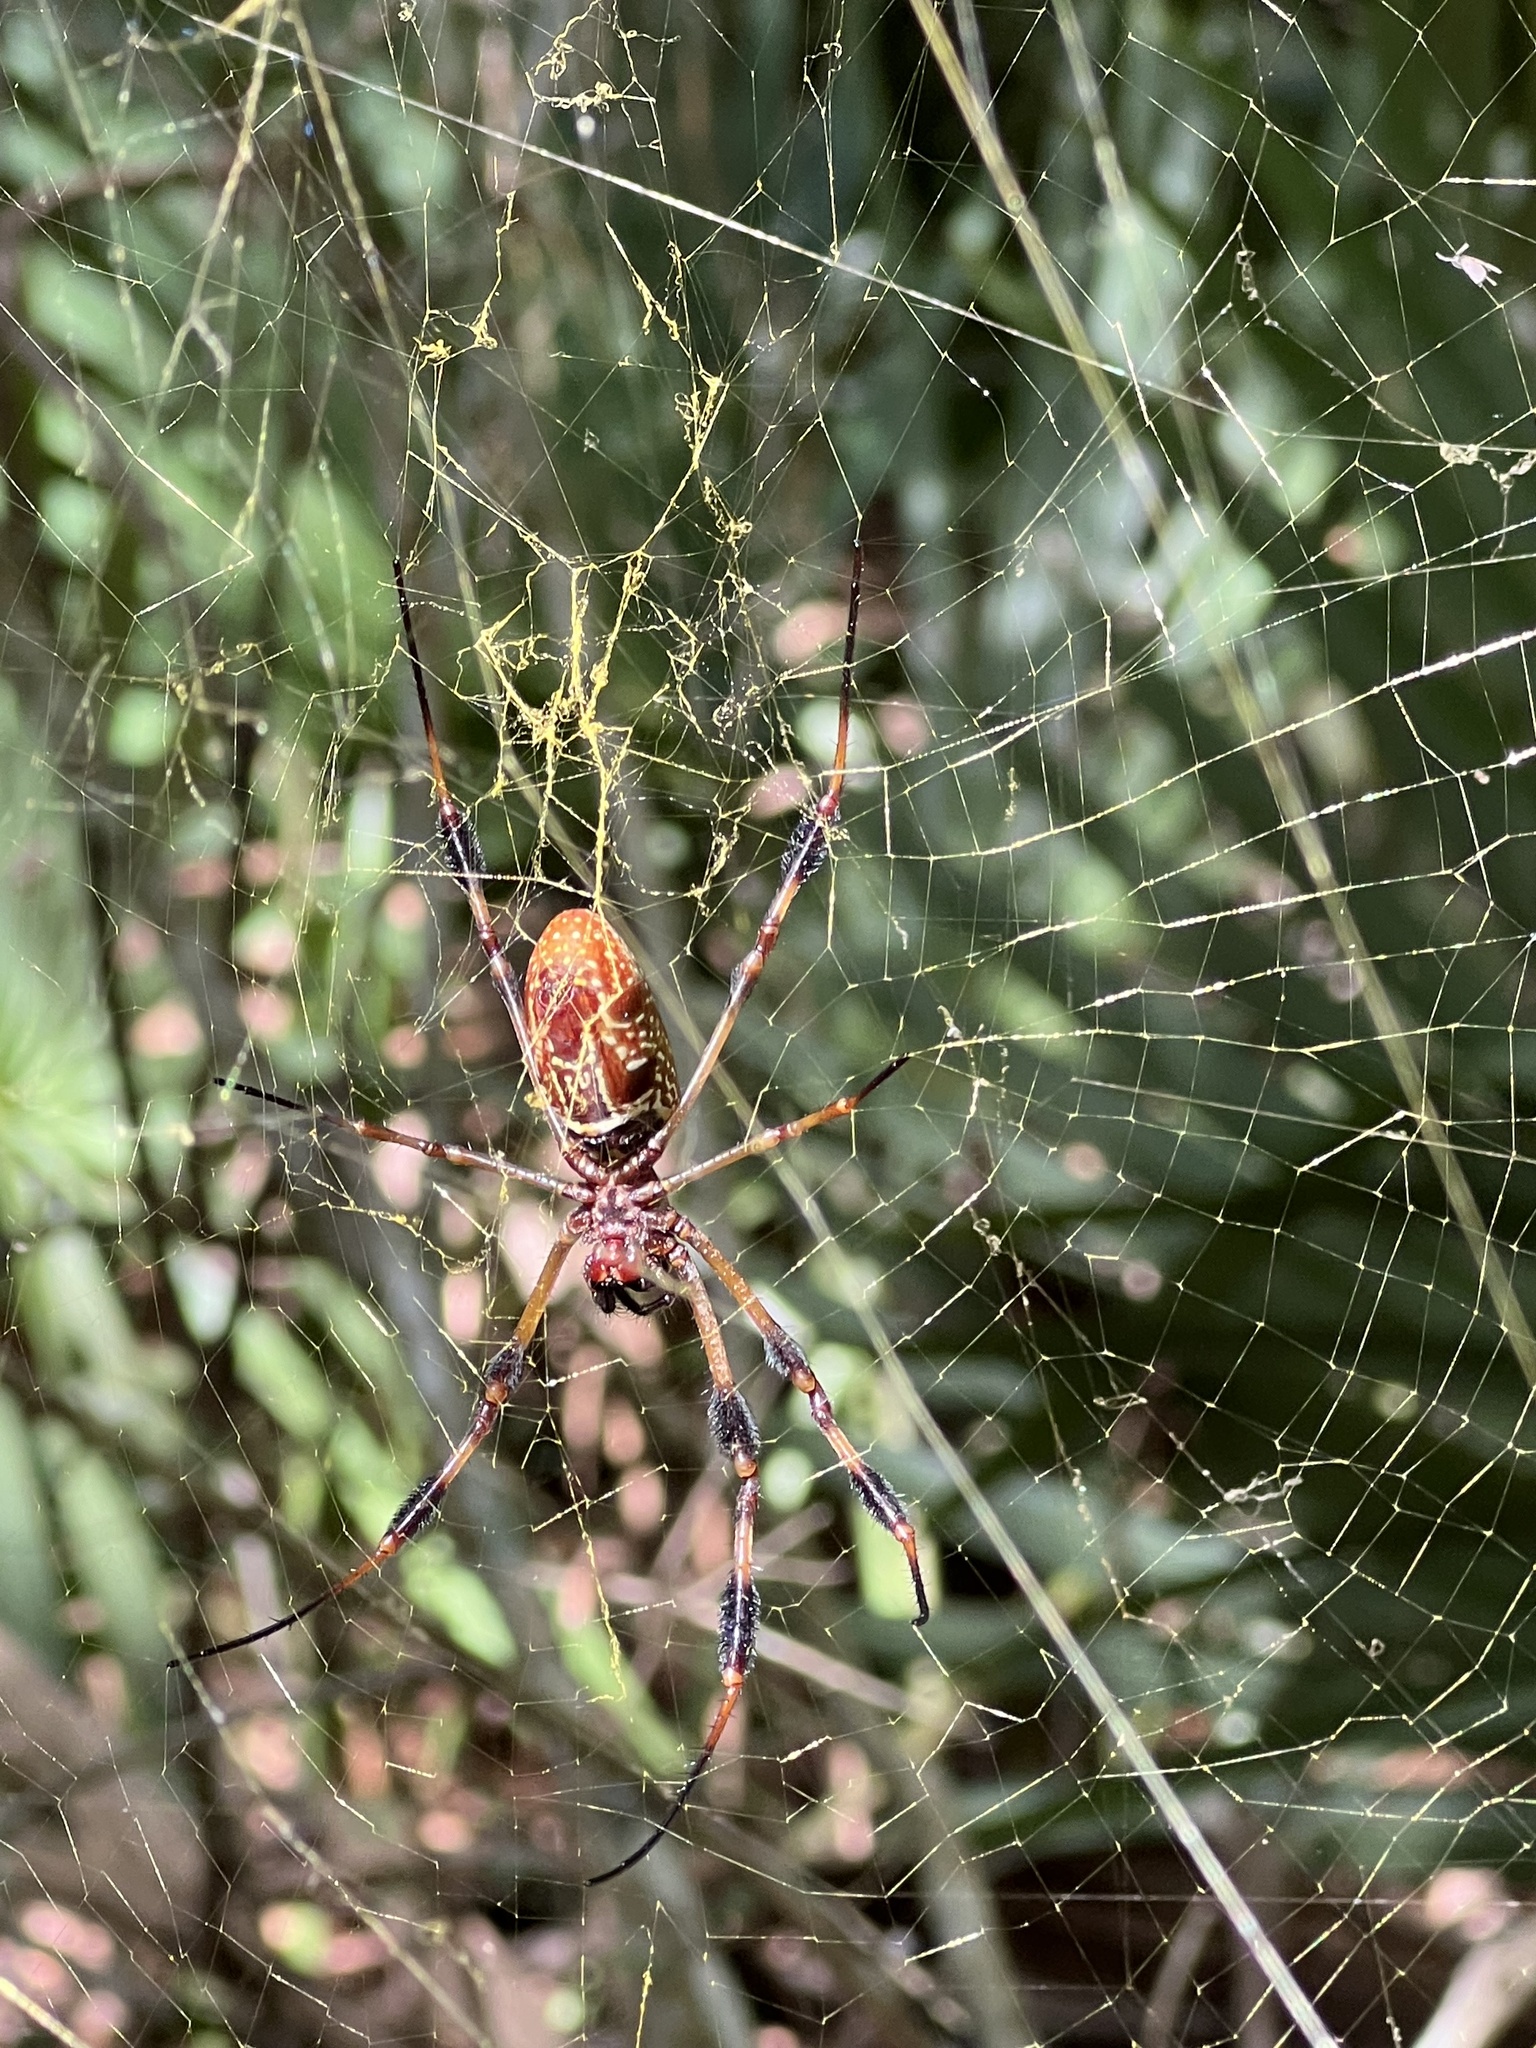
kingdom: Animalia
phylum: Arthropoda
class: Arachnida
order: Araneae
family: Araneidae
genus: Trichonephila
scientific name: Trichonephila clavipes
